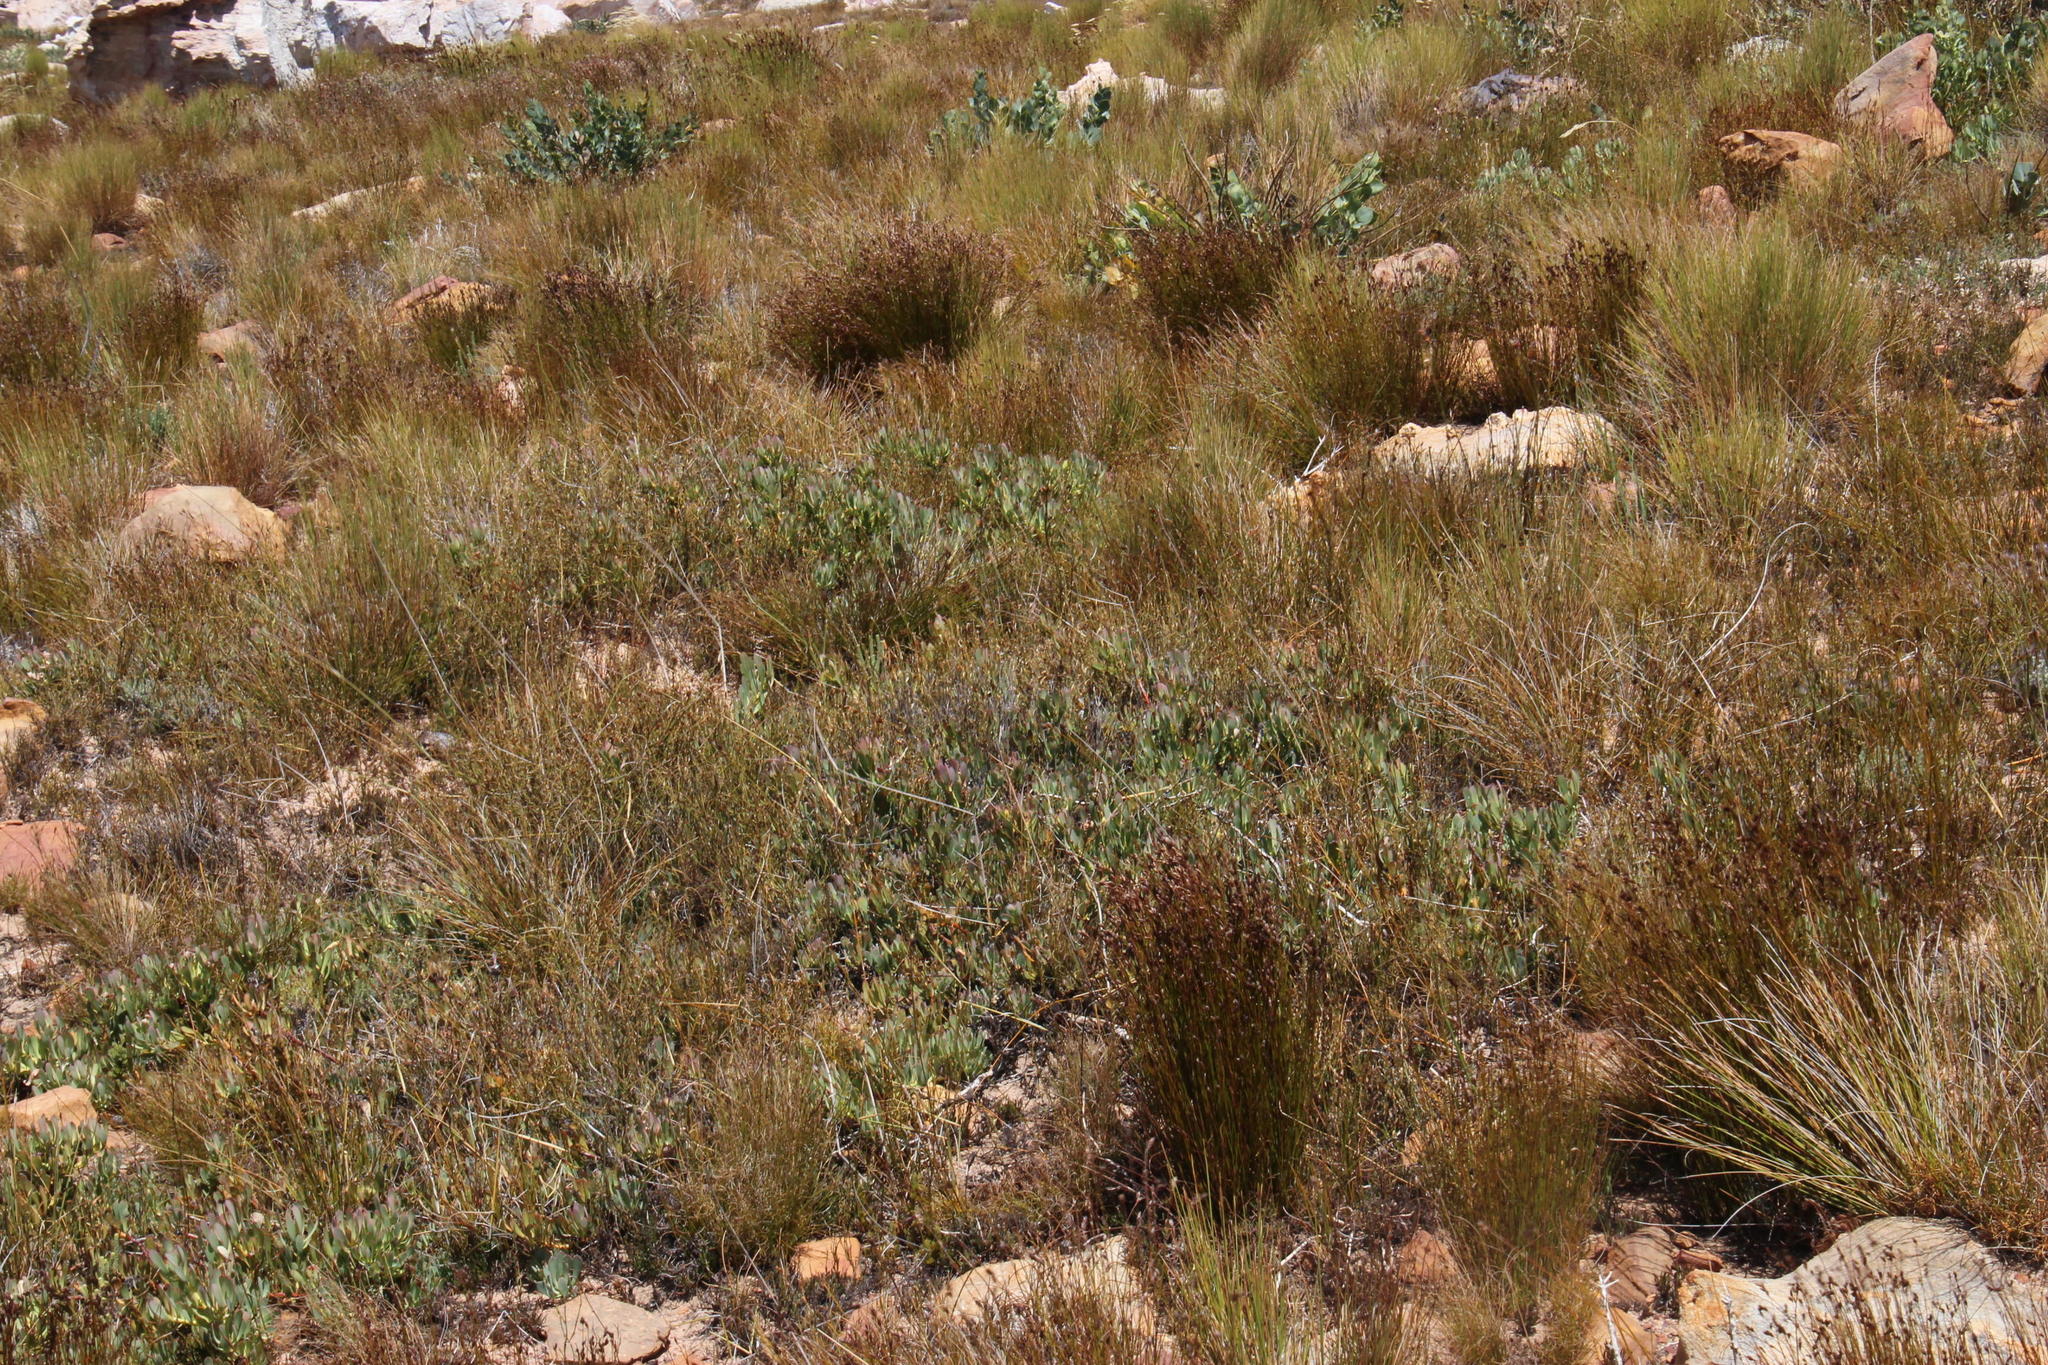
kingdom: Plantae
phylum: Tracheophyta
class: Magnoliopsida
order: Proteales
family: Proteaceae
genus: Leucadendron
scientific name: Leucadendron arcuatum
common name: Red-edge conebush
